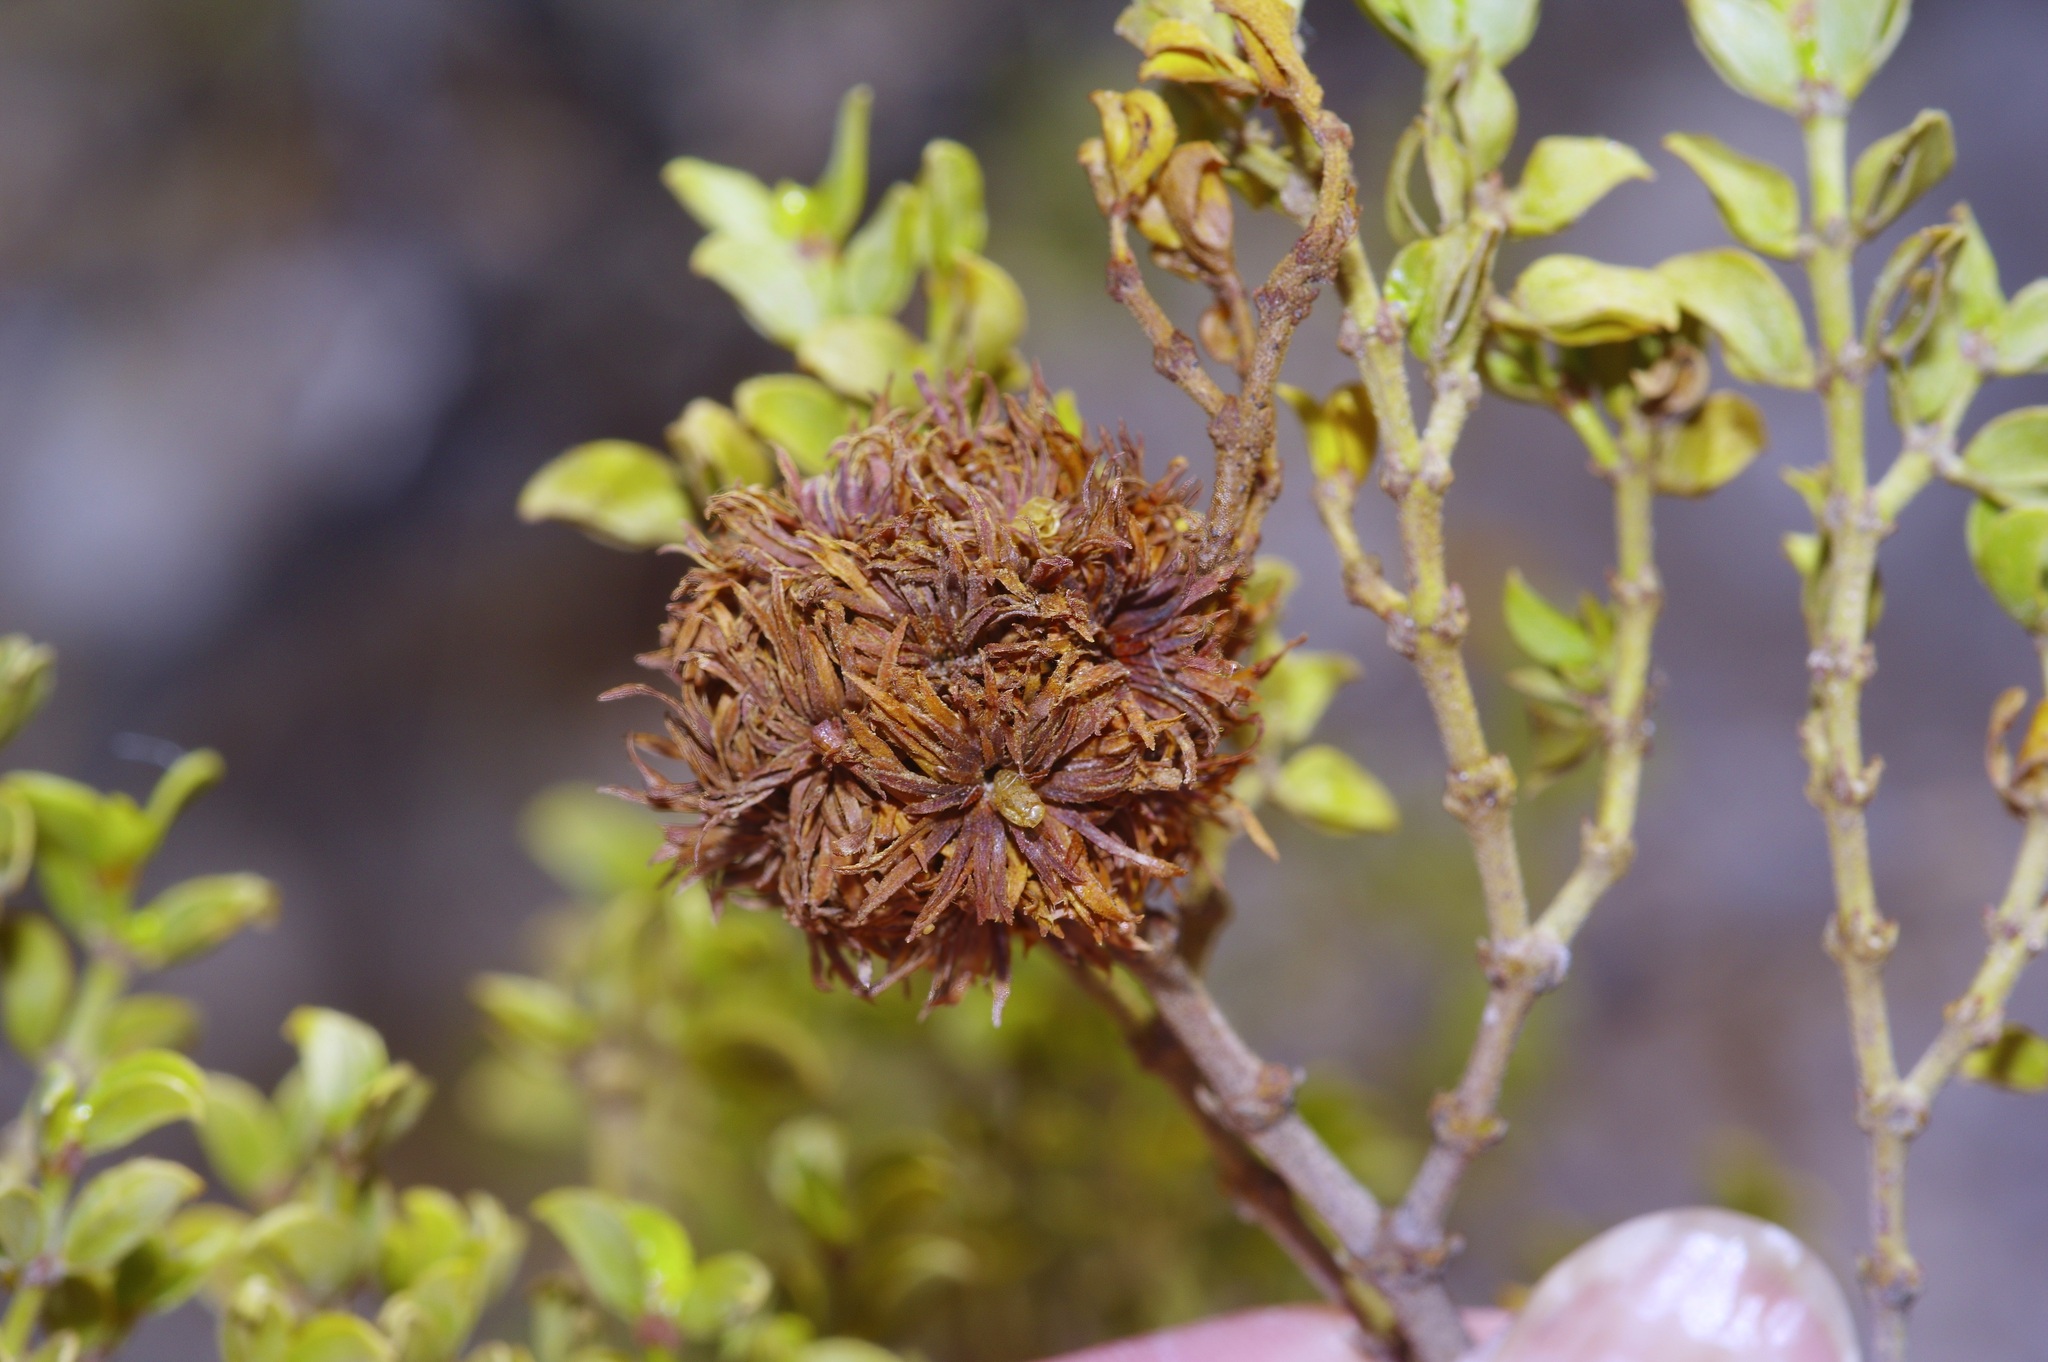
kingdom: Animalia
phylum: Arthropoda
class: Insecta
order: Diptera
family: Cecidomyiidae
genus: Asphondylia
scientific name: Asphondylia auripila
